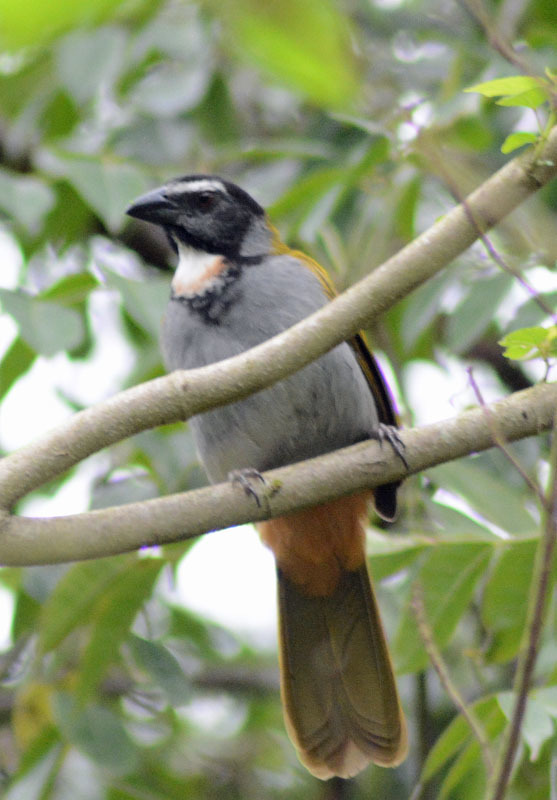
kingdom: Animalia
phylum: Chordata
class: Aves
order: Passeriformes
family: Thraupidae
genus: Saltator
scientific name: Saltator atriceps
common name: Black-headed saltator
